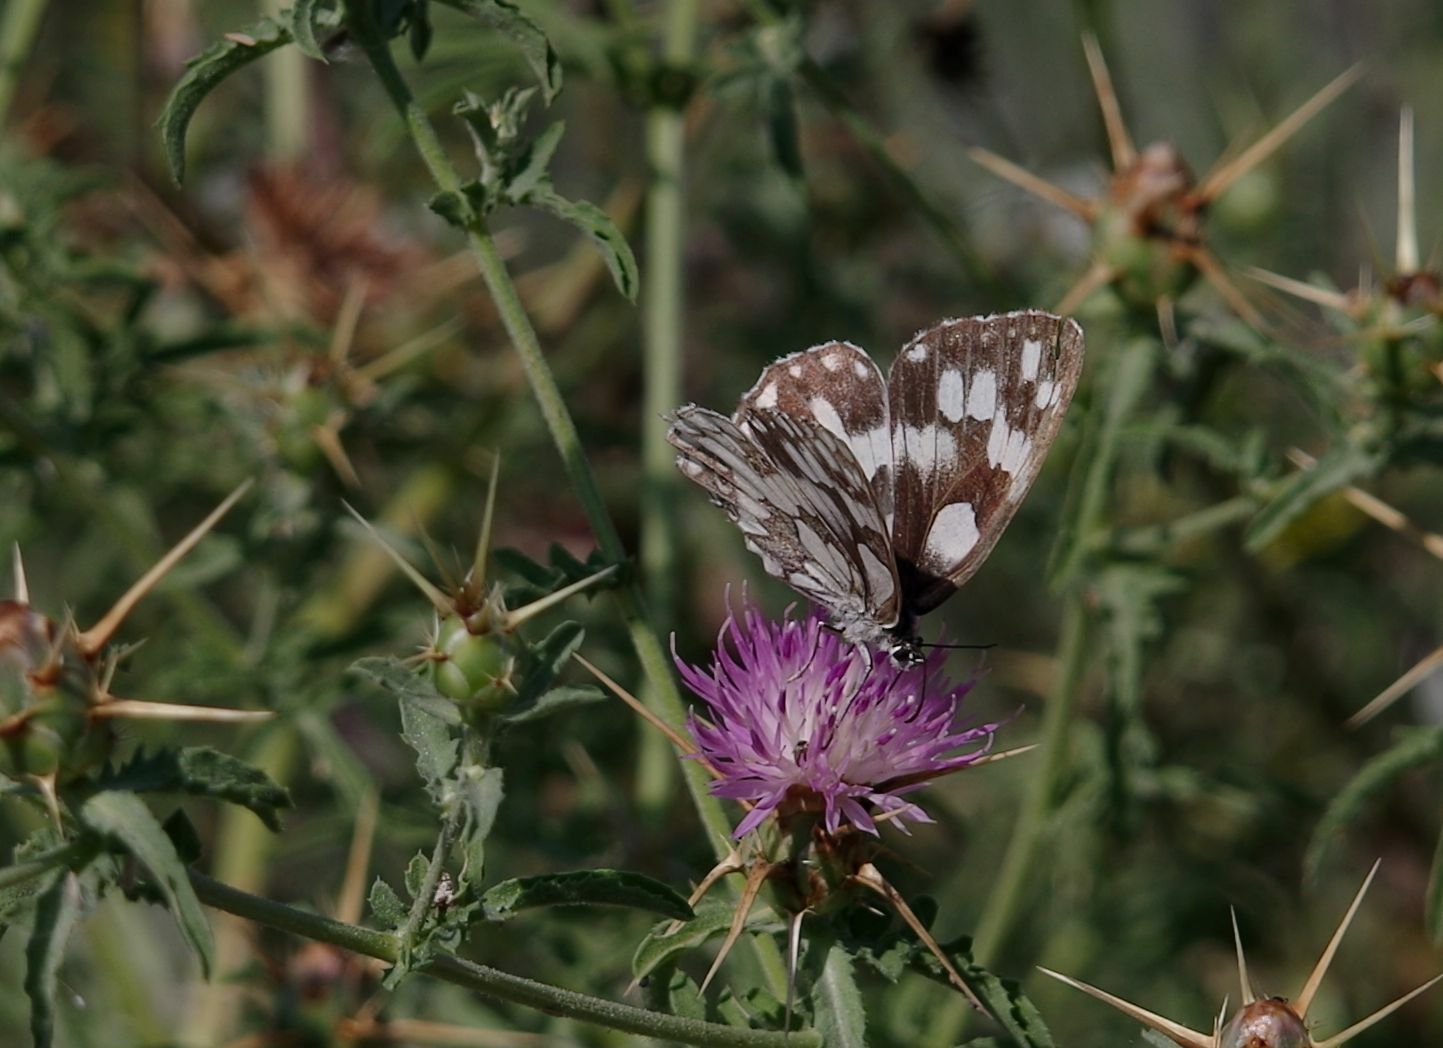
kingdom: Animalia
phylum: Arthropoda
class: Insecta
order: Lepidoptera
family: Nymphalidae
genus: Melanargia
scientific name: Melanargia galathea
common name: Marbled white
